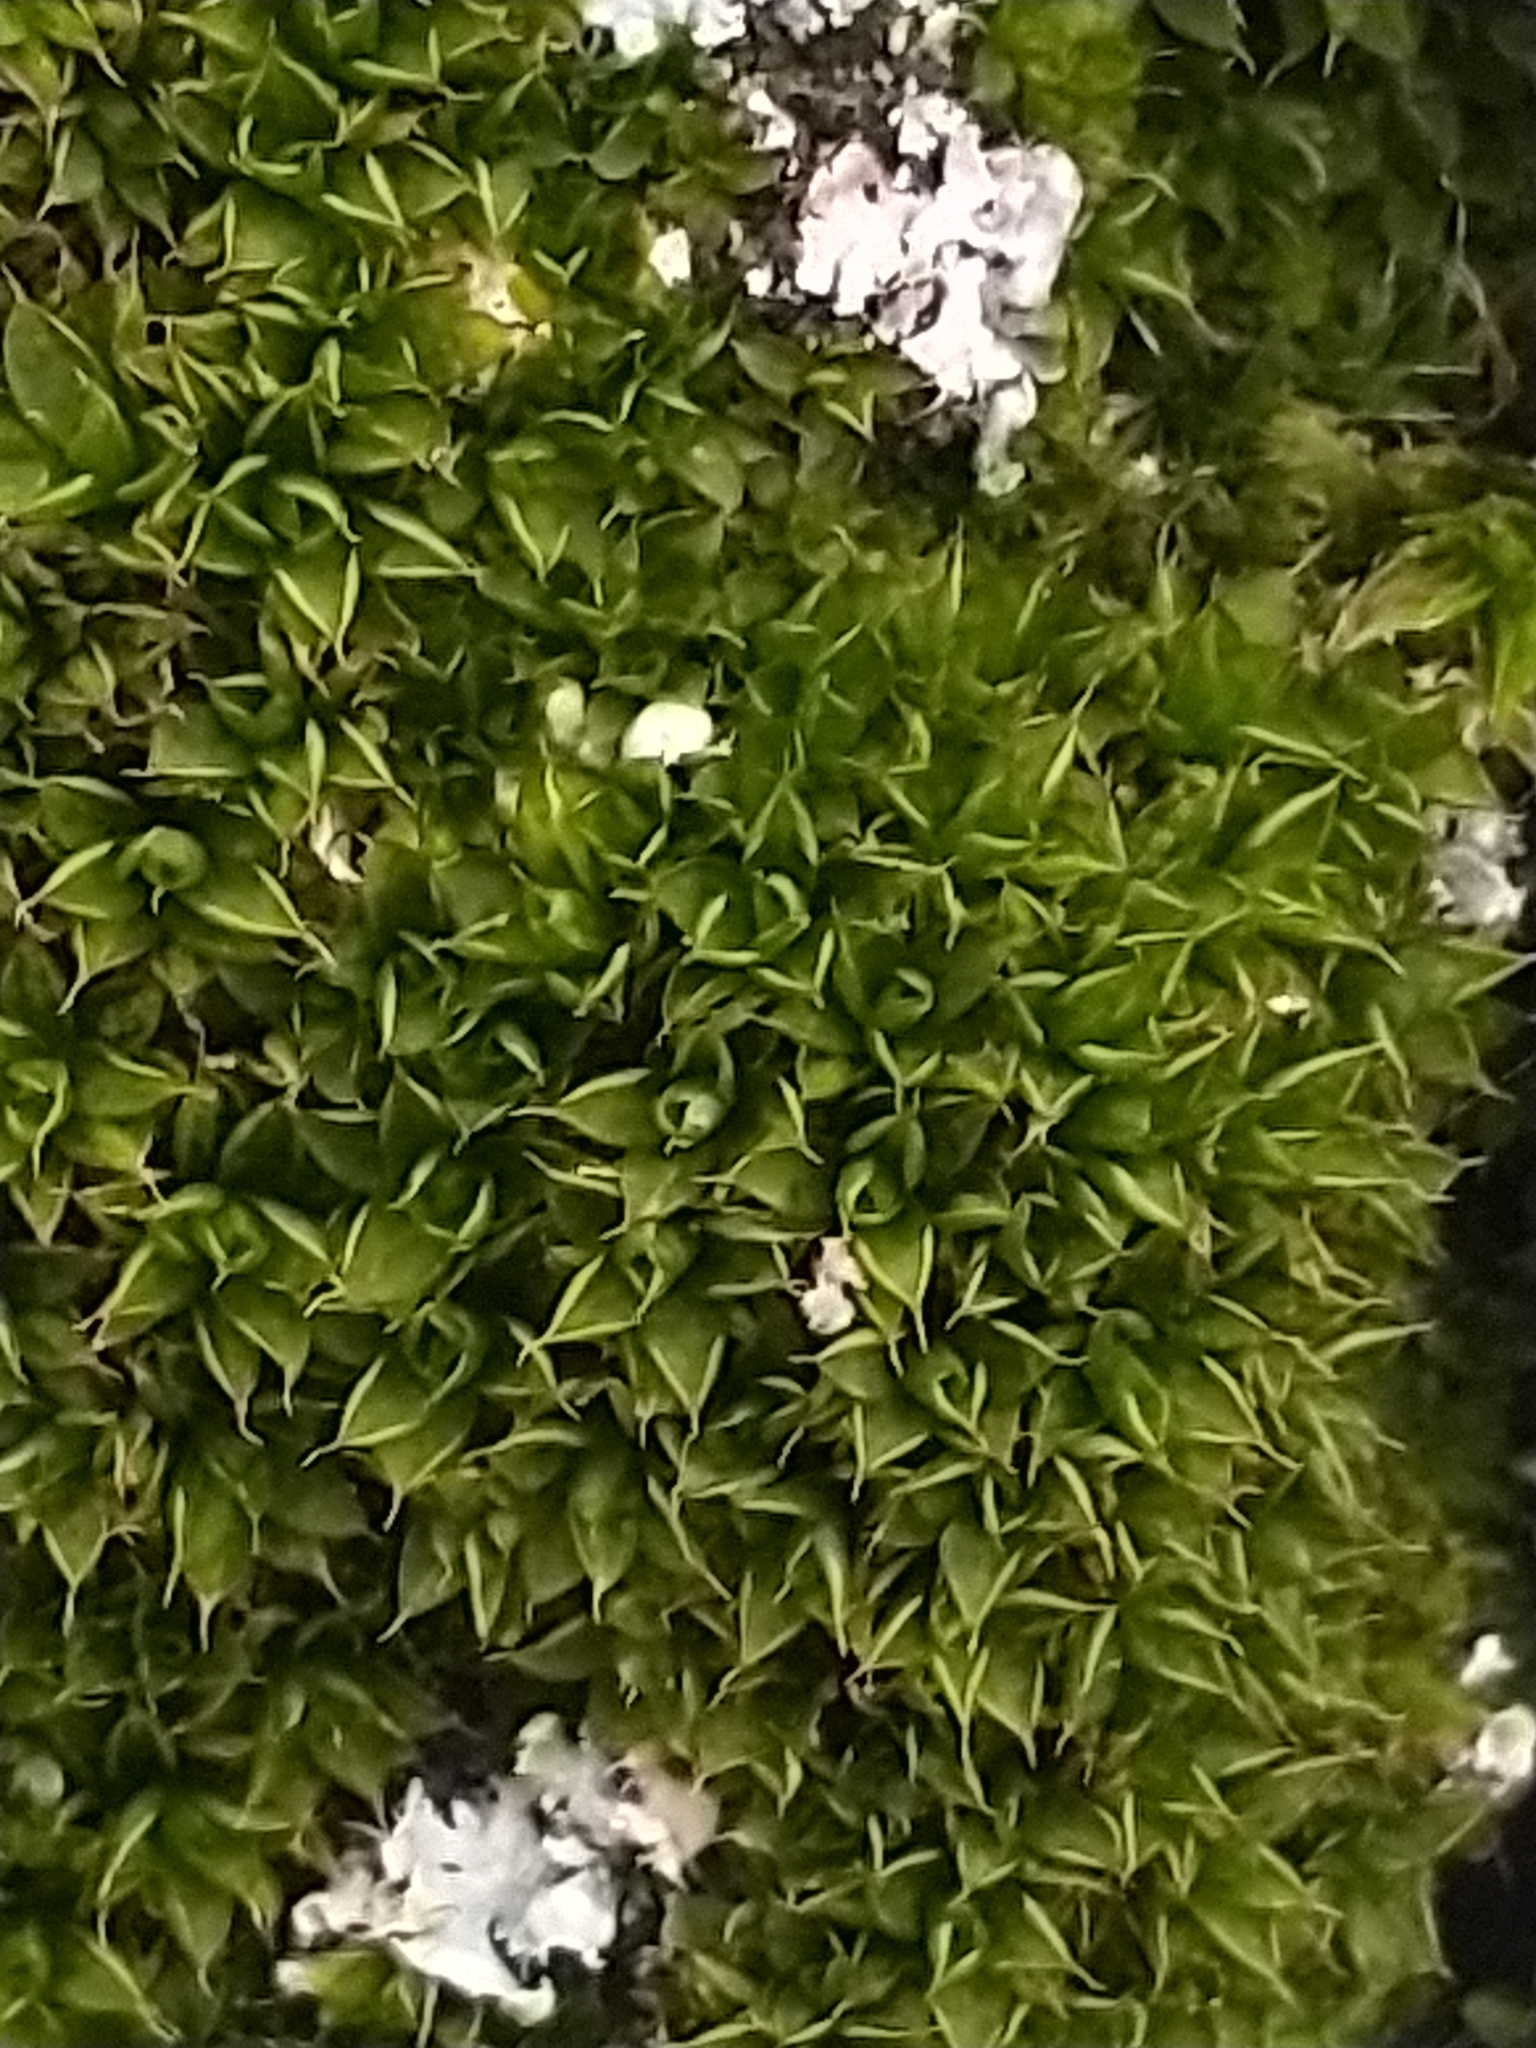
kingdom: Plantae
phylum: Bryophyta
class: Bryopsida
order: Pottiales
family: Pottiaceae
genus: Syntrichia
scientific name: Syntrichia papillosa
